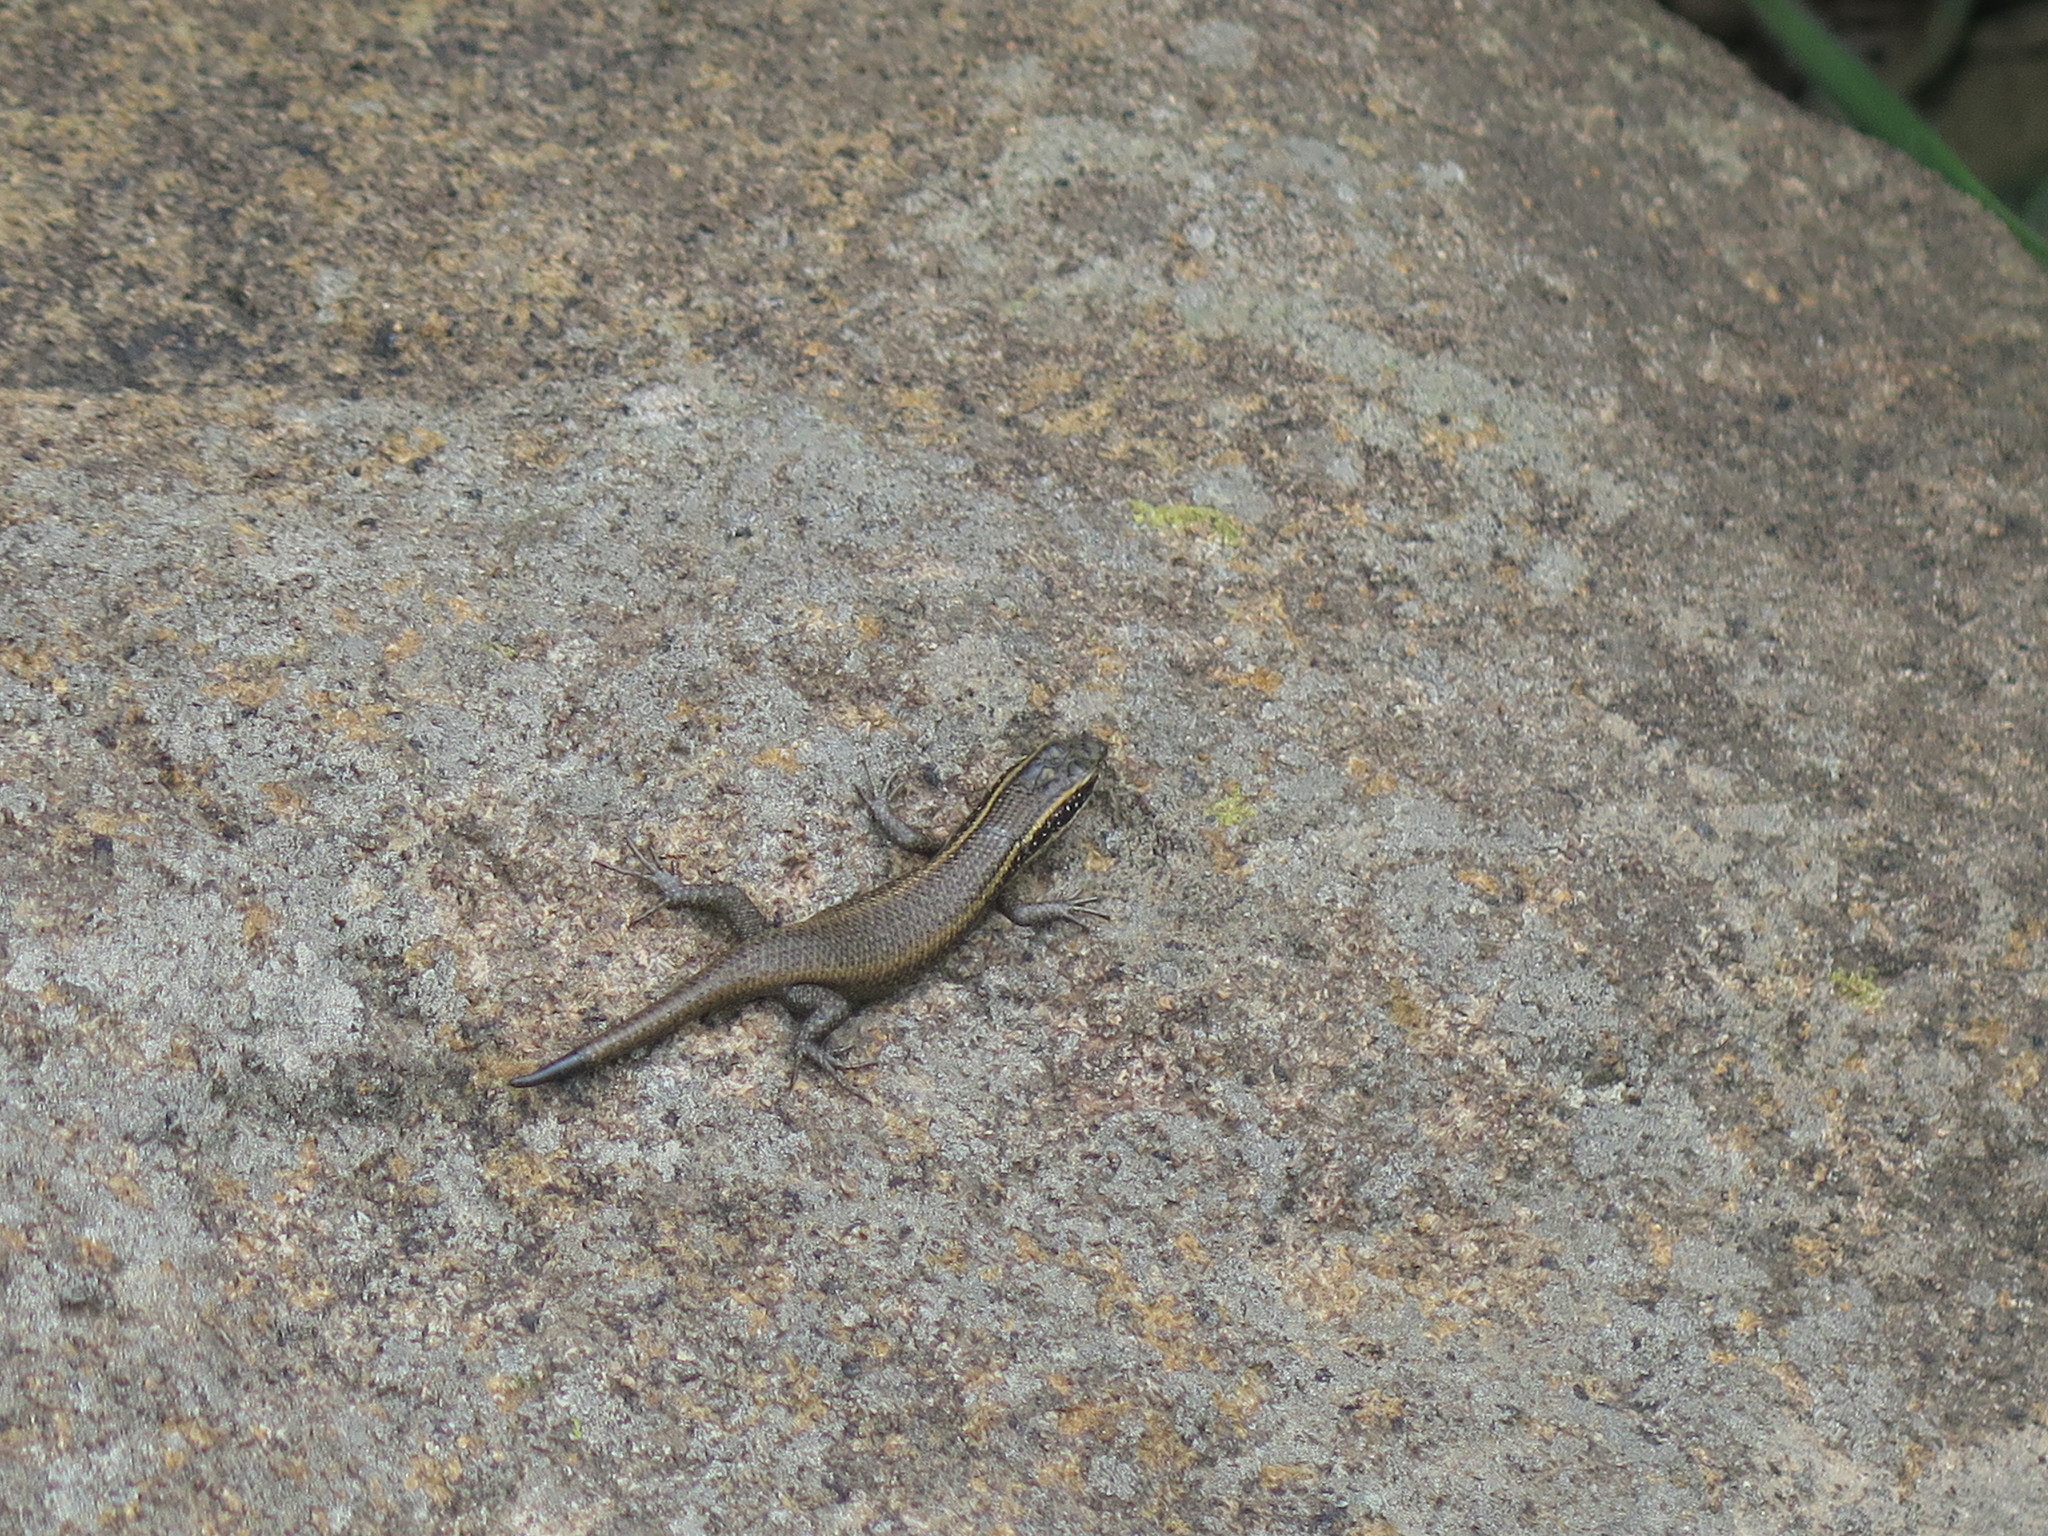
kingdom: Animalia
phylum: Chordata
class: Squamata
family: Scincidae
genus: Trachylepis
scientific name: Trachylepis punctatissima
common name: Montane speckled skink
